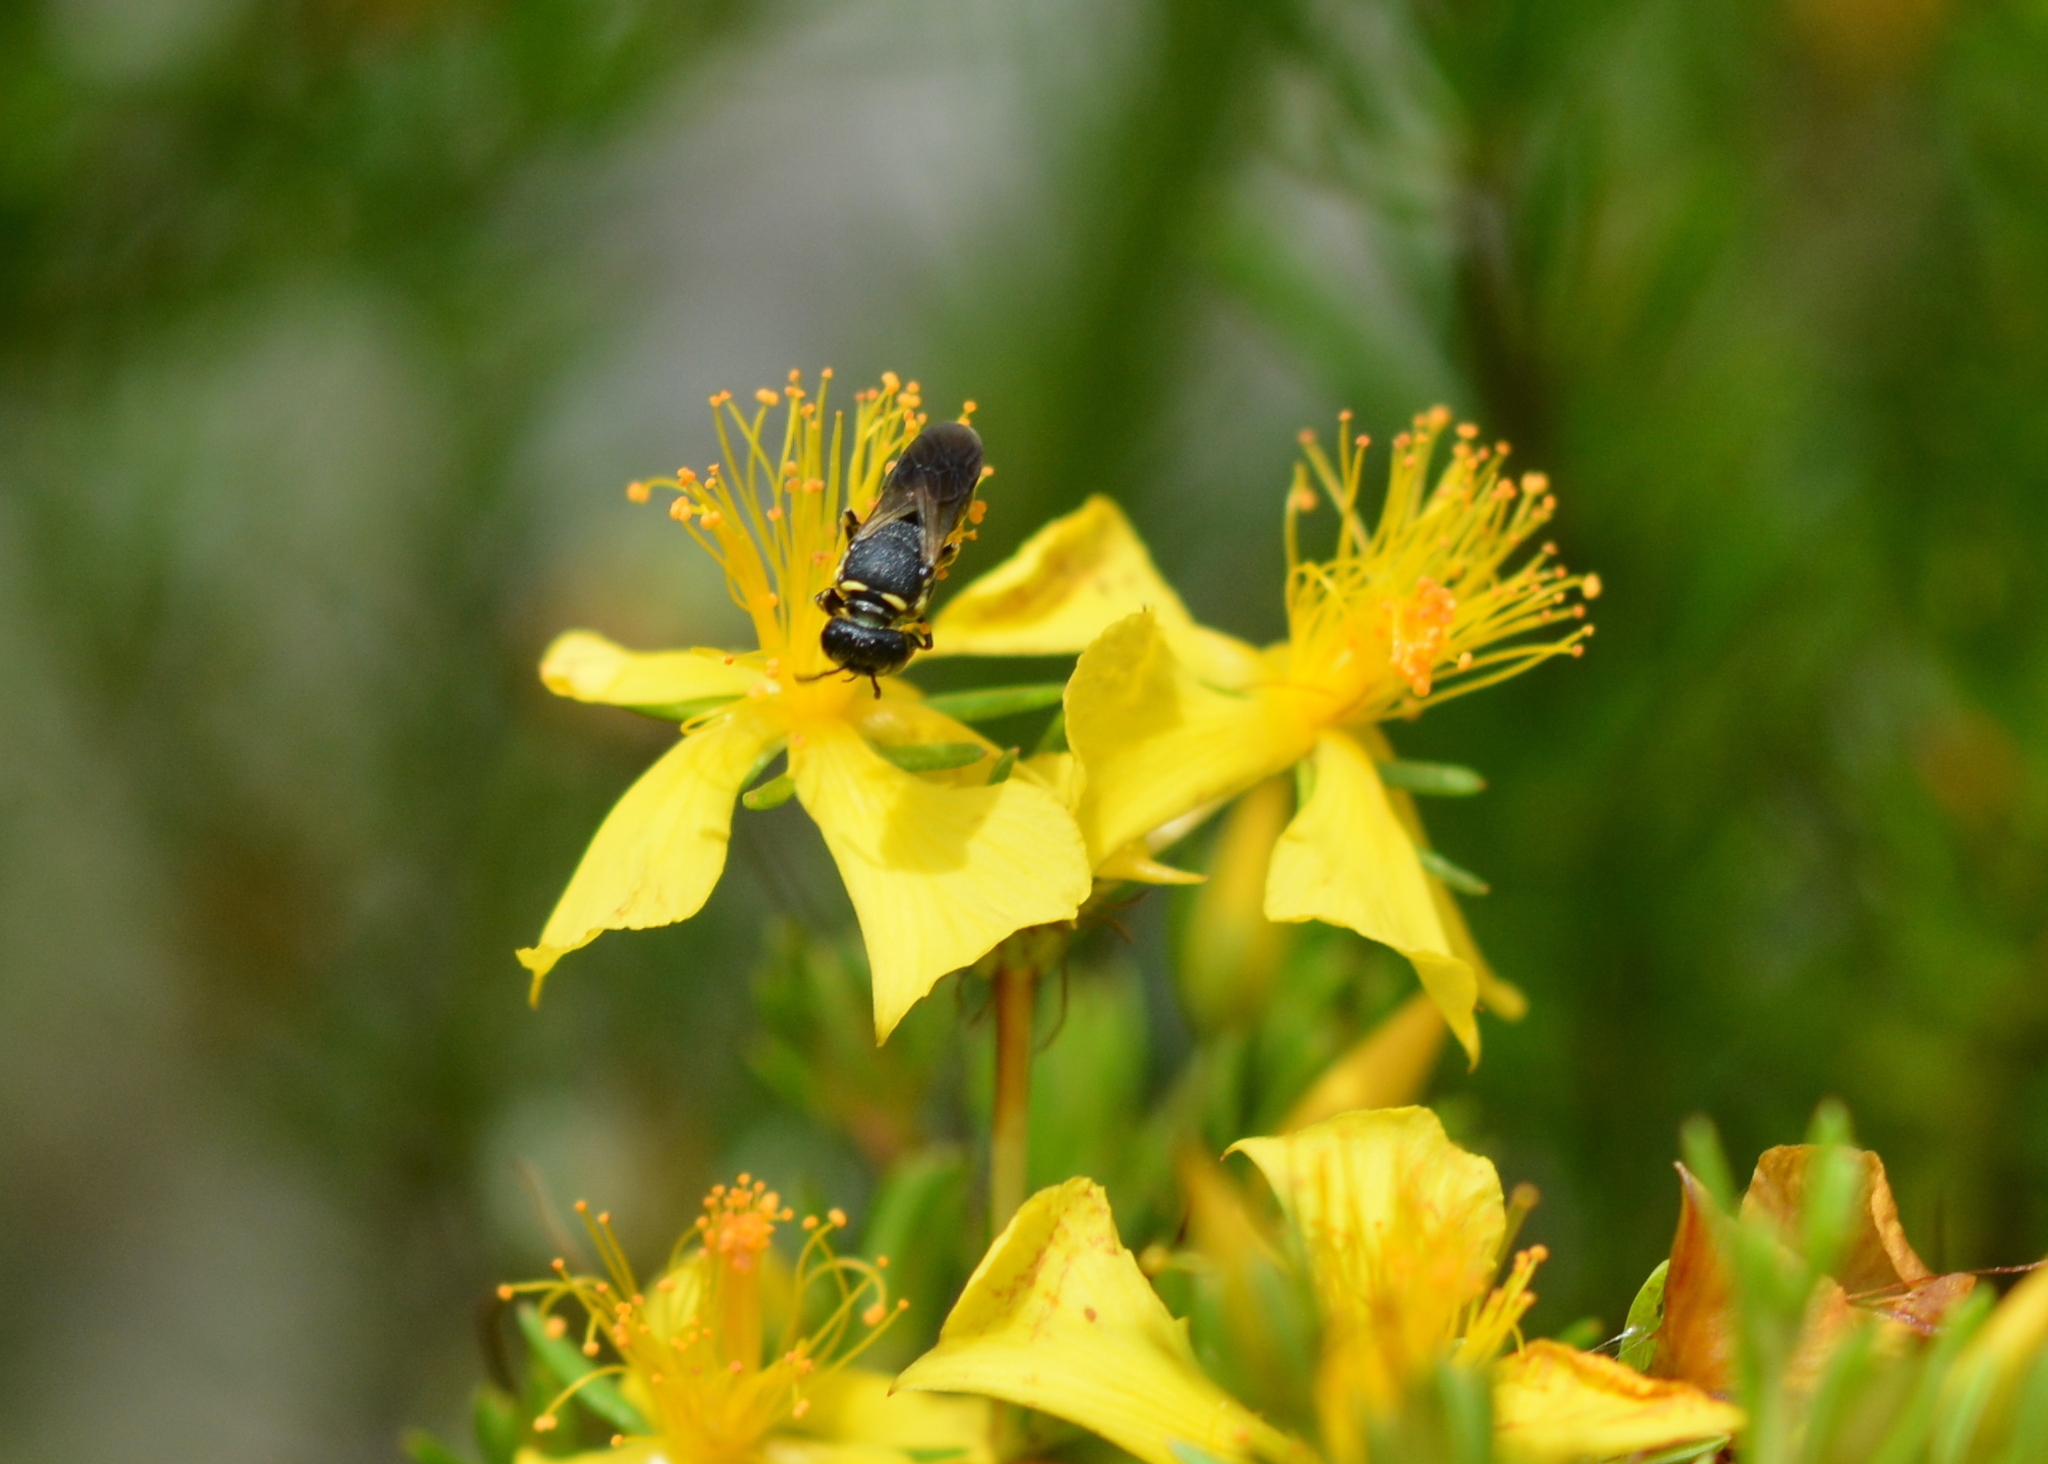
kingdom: Animalia
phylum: Arthropoda
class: Insecta
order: Hymenoptera
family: Colletidae
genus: Hylaeus
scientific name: Hylaeus confluens
